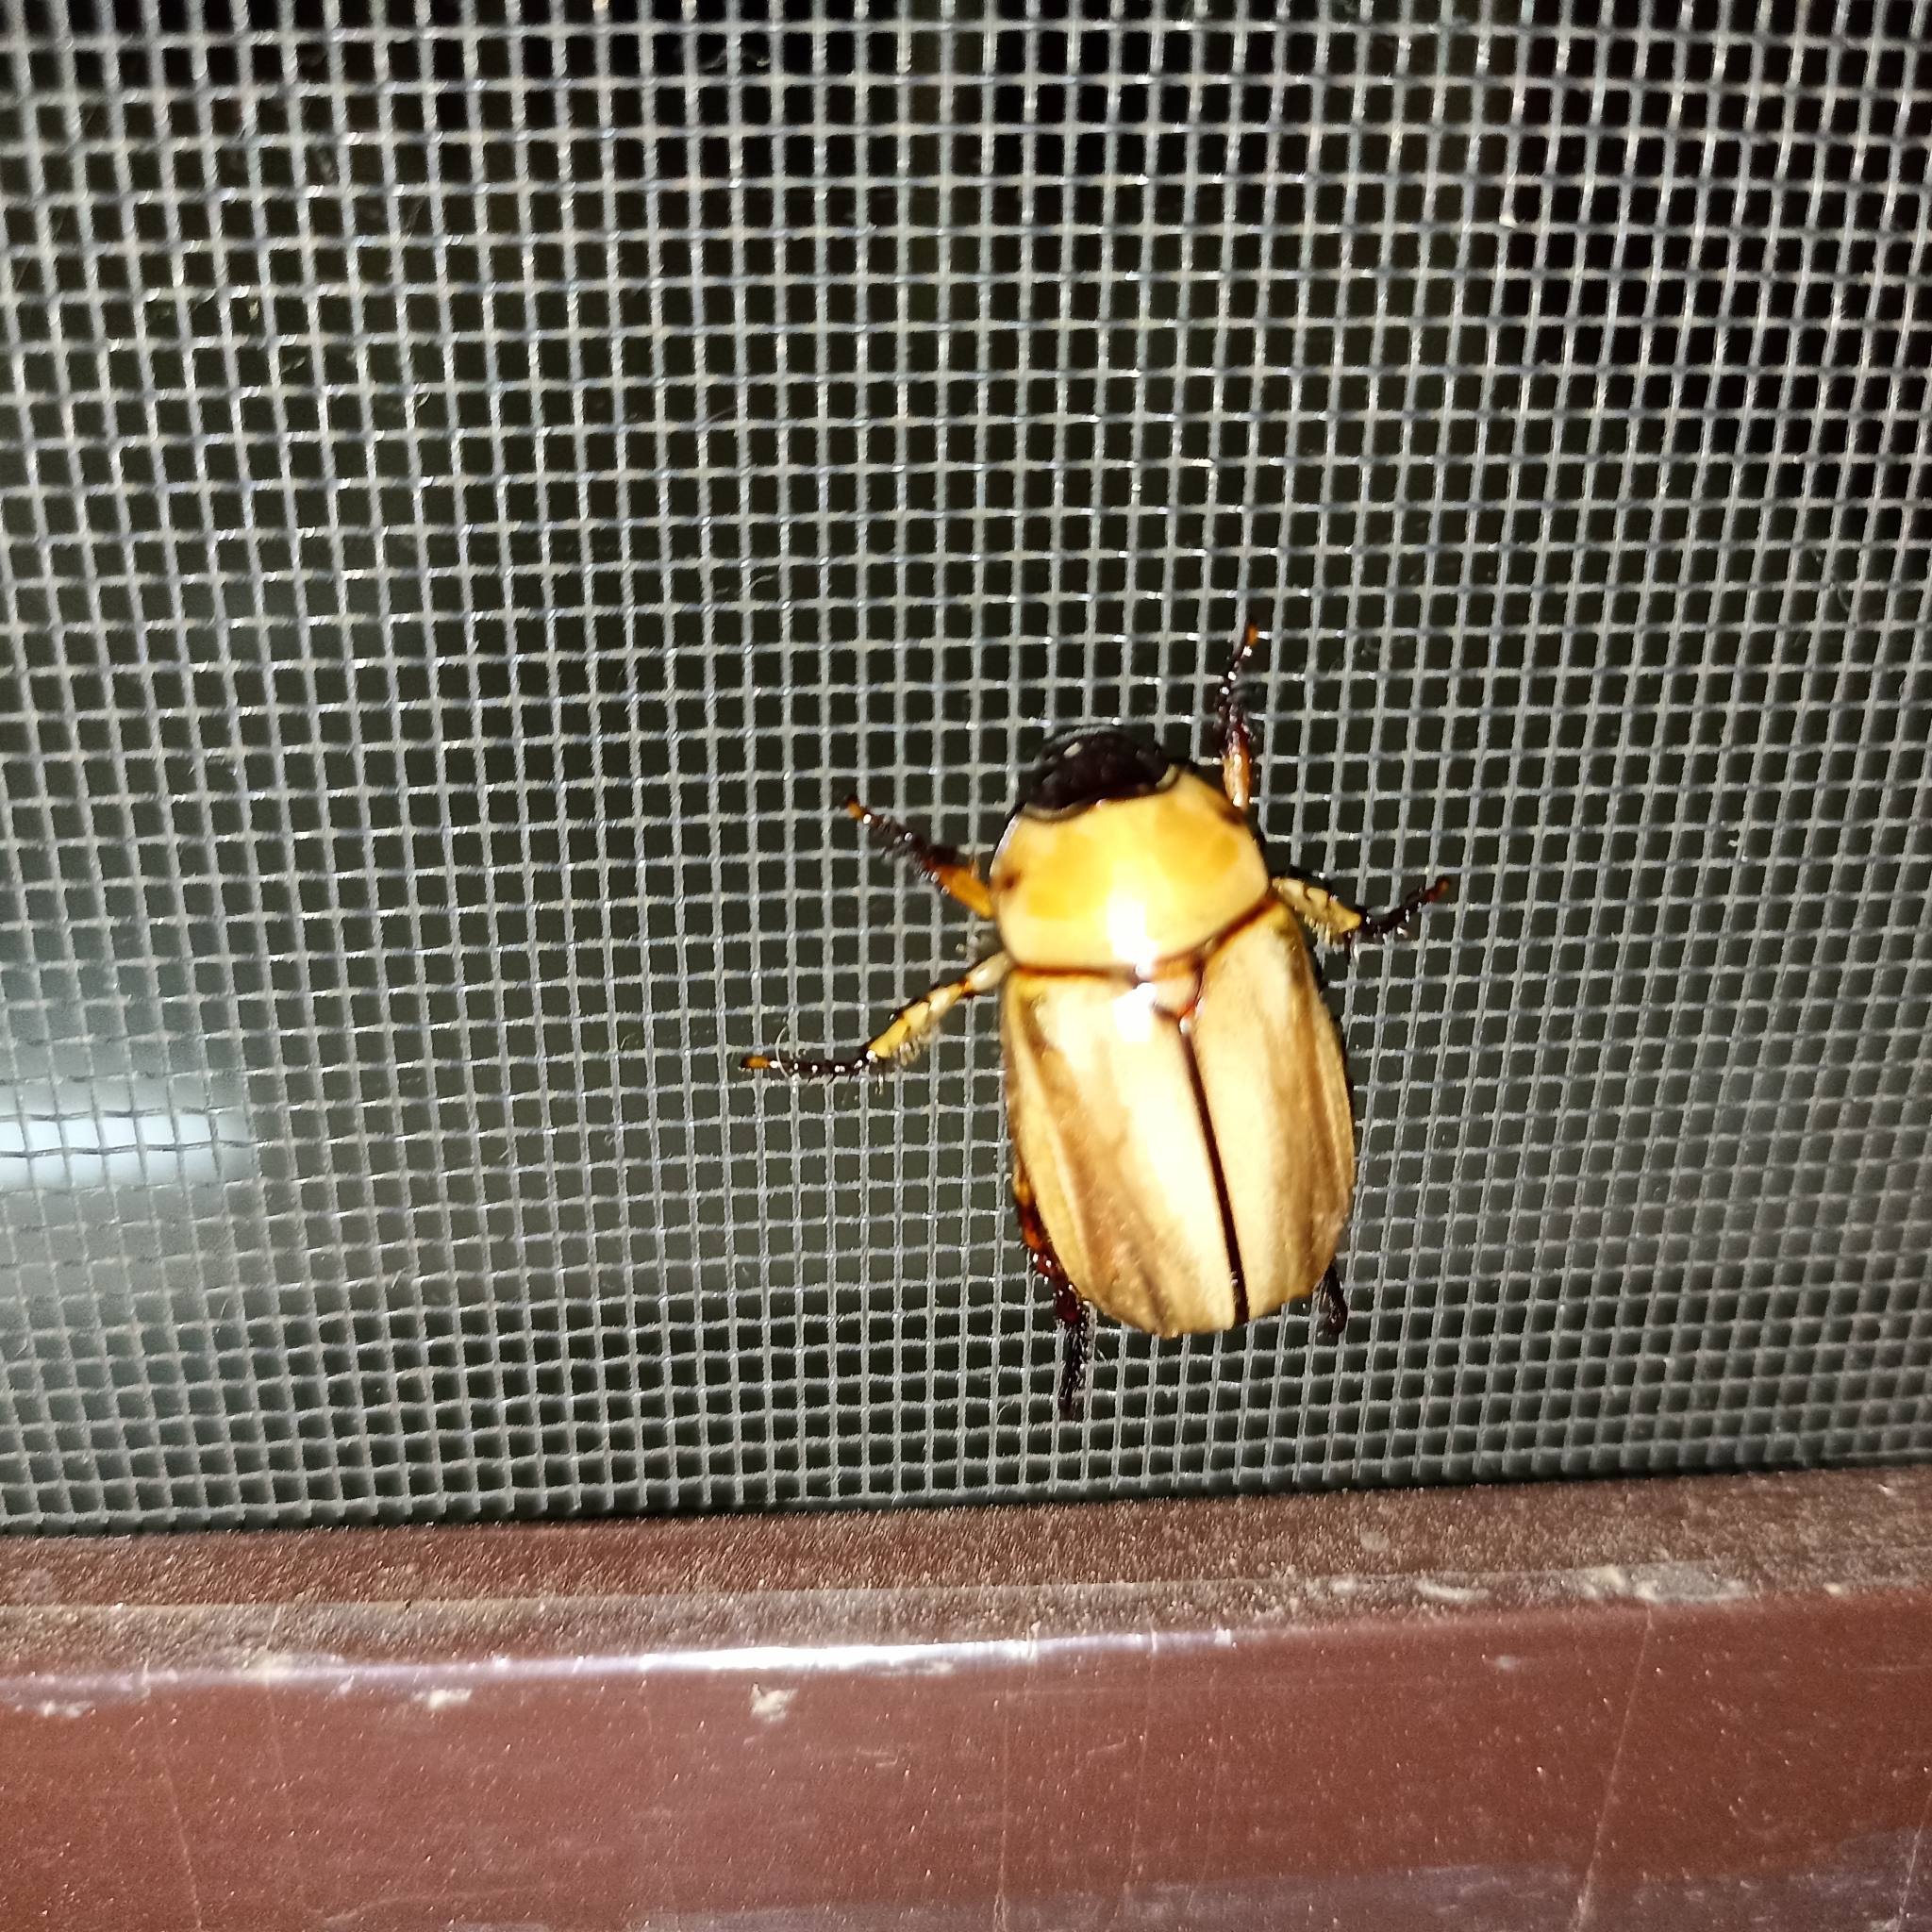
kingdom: Animalia
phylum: Arthropoda
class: Insecta
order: Coleoptera
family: Scarabaeidae
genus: Anomala
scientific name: Anomala pallida
